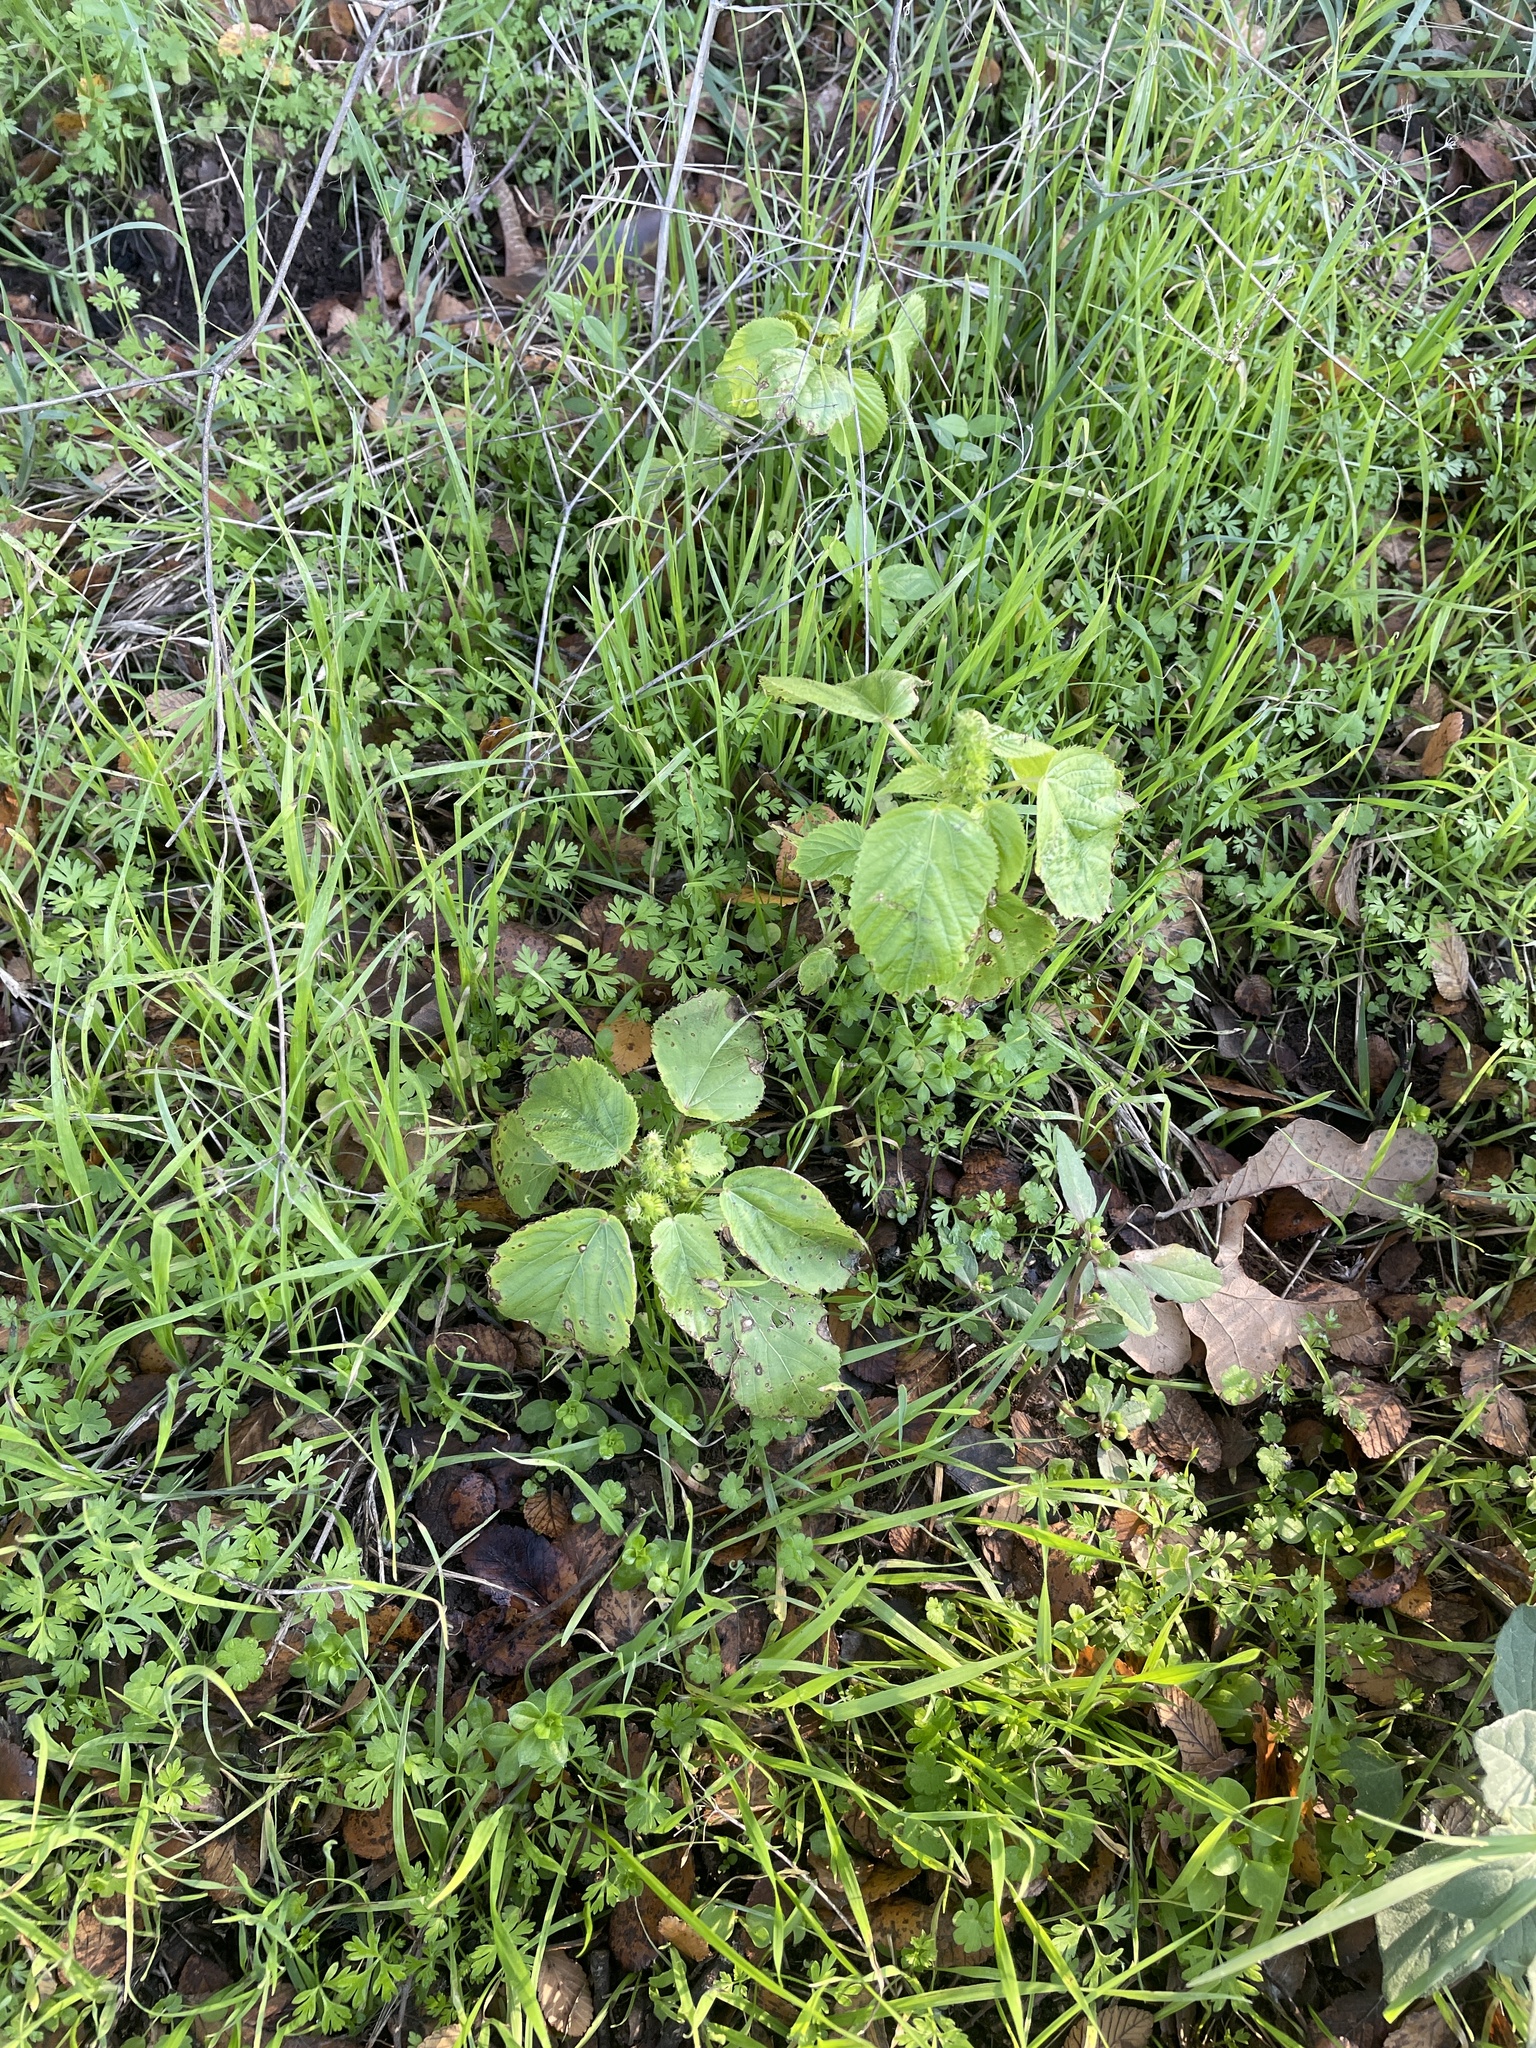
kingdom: Plantae
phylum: Tracheophyta
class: Magnoliopsida
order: Malpighiales
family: Euphorbiaceae
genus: Acalypha
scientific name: Acalypha ostryifolia
